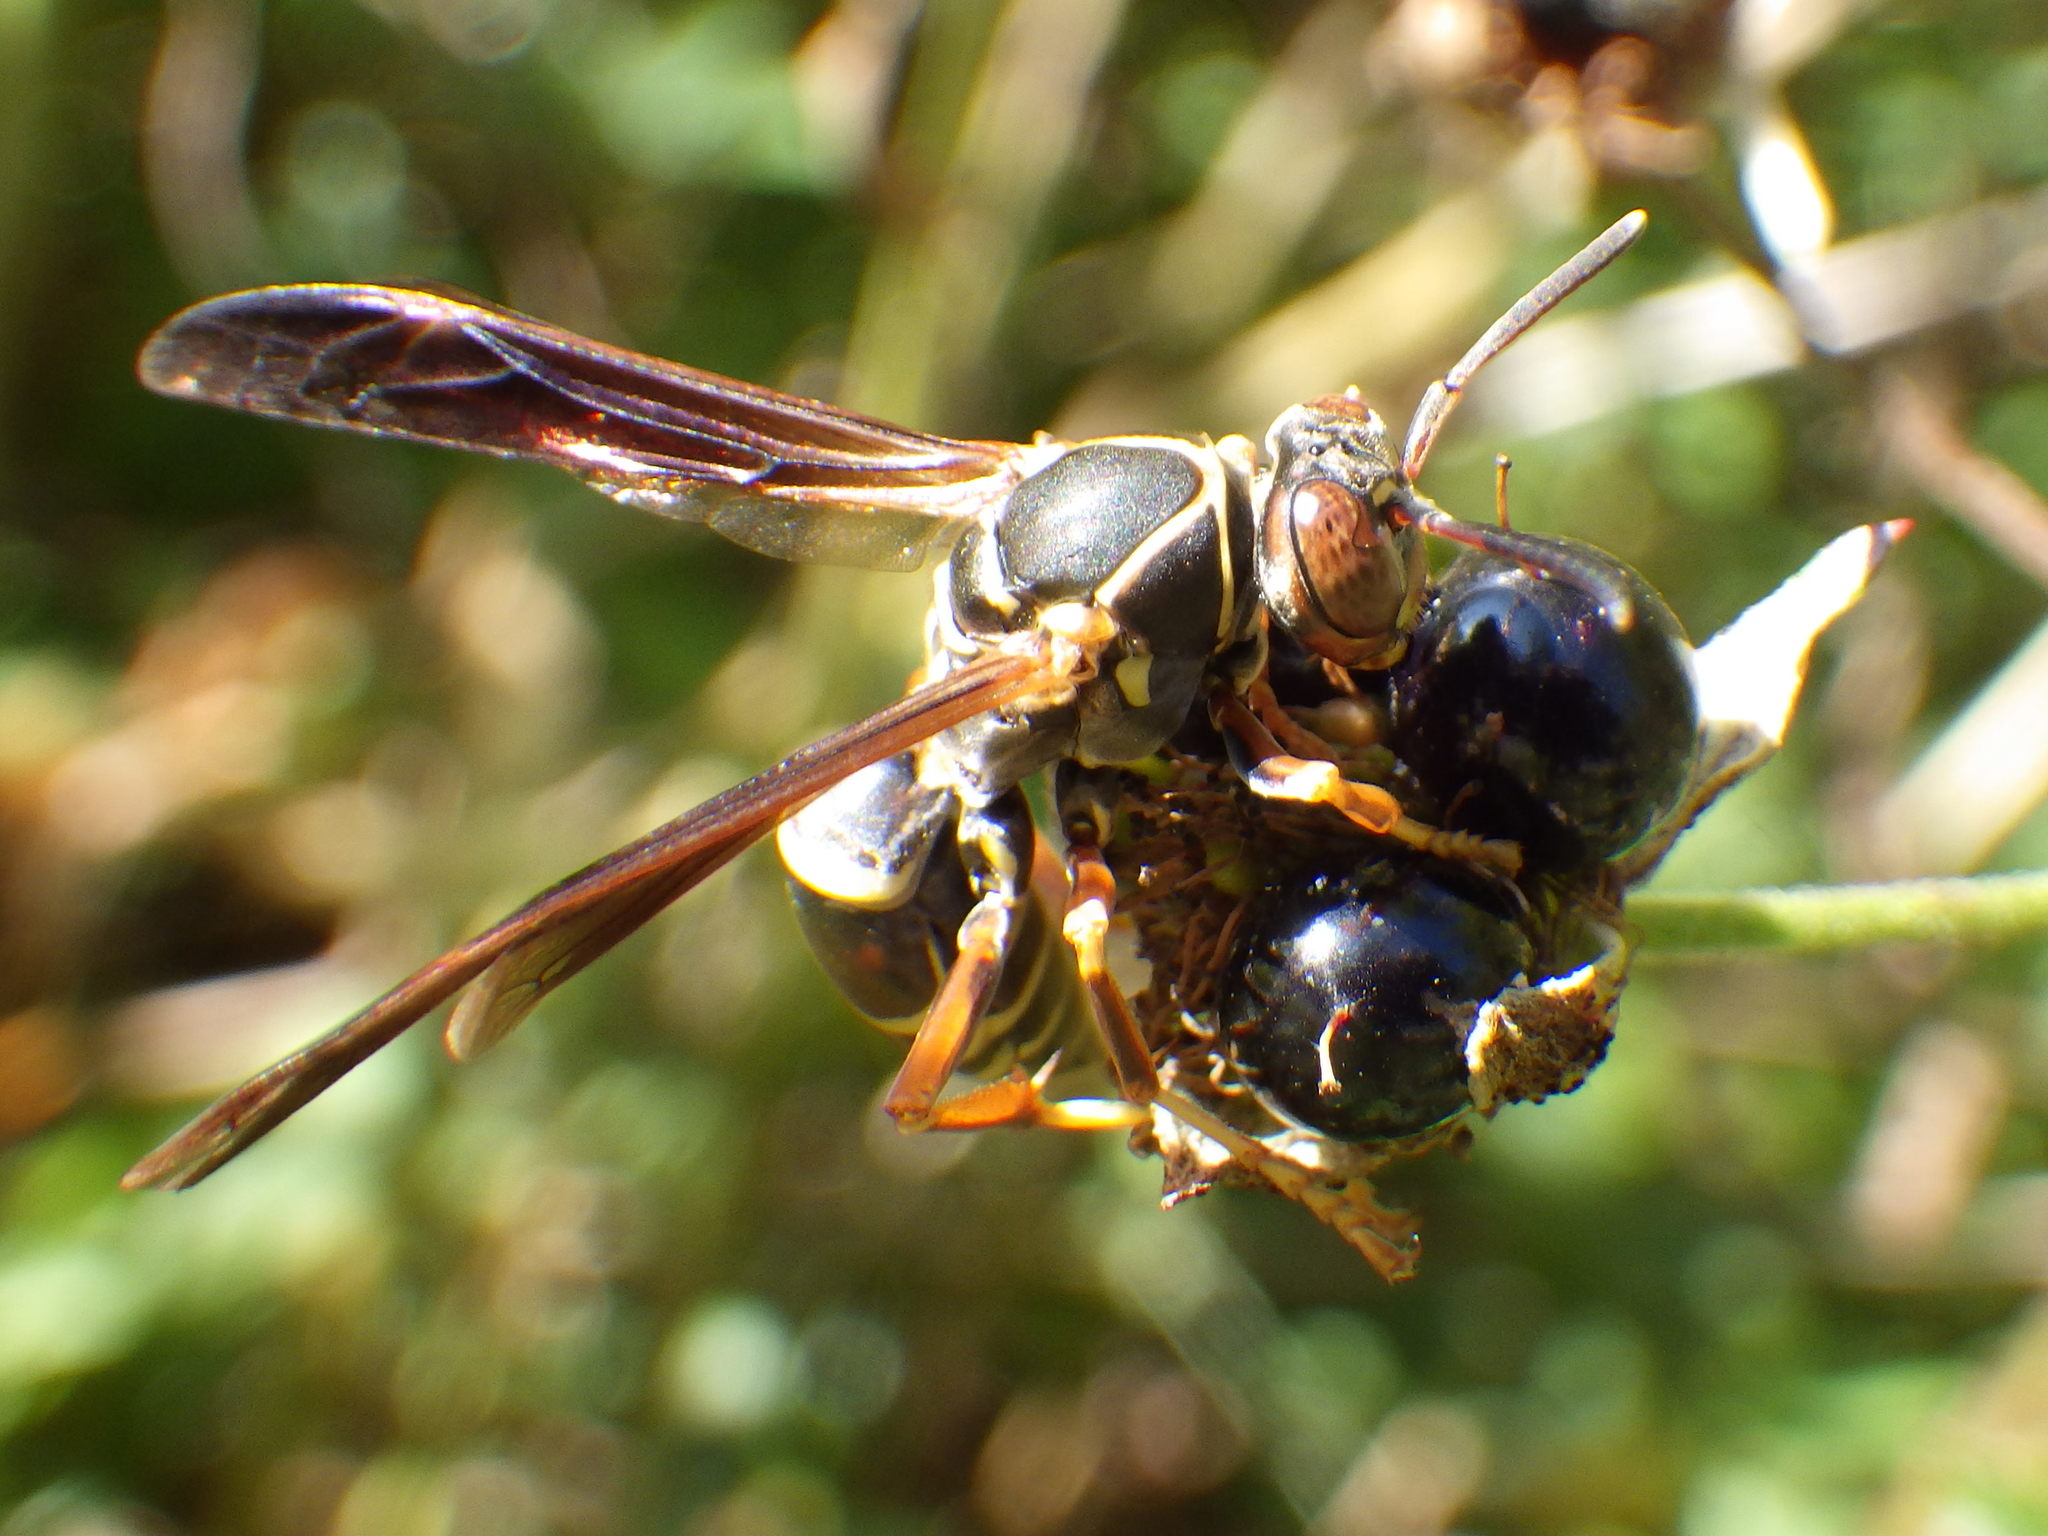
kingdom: Animalia
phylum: Arthropoda
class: Insecta
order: Hymenoptera
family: Eumenidae
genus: Polistes
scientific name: Polistes fuscatus
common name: Dark paper wasp
